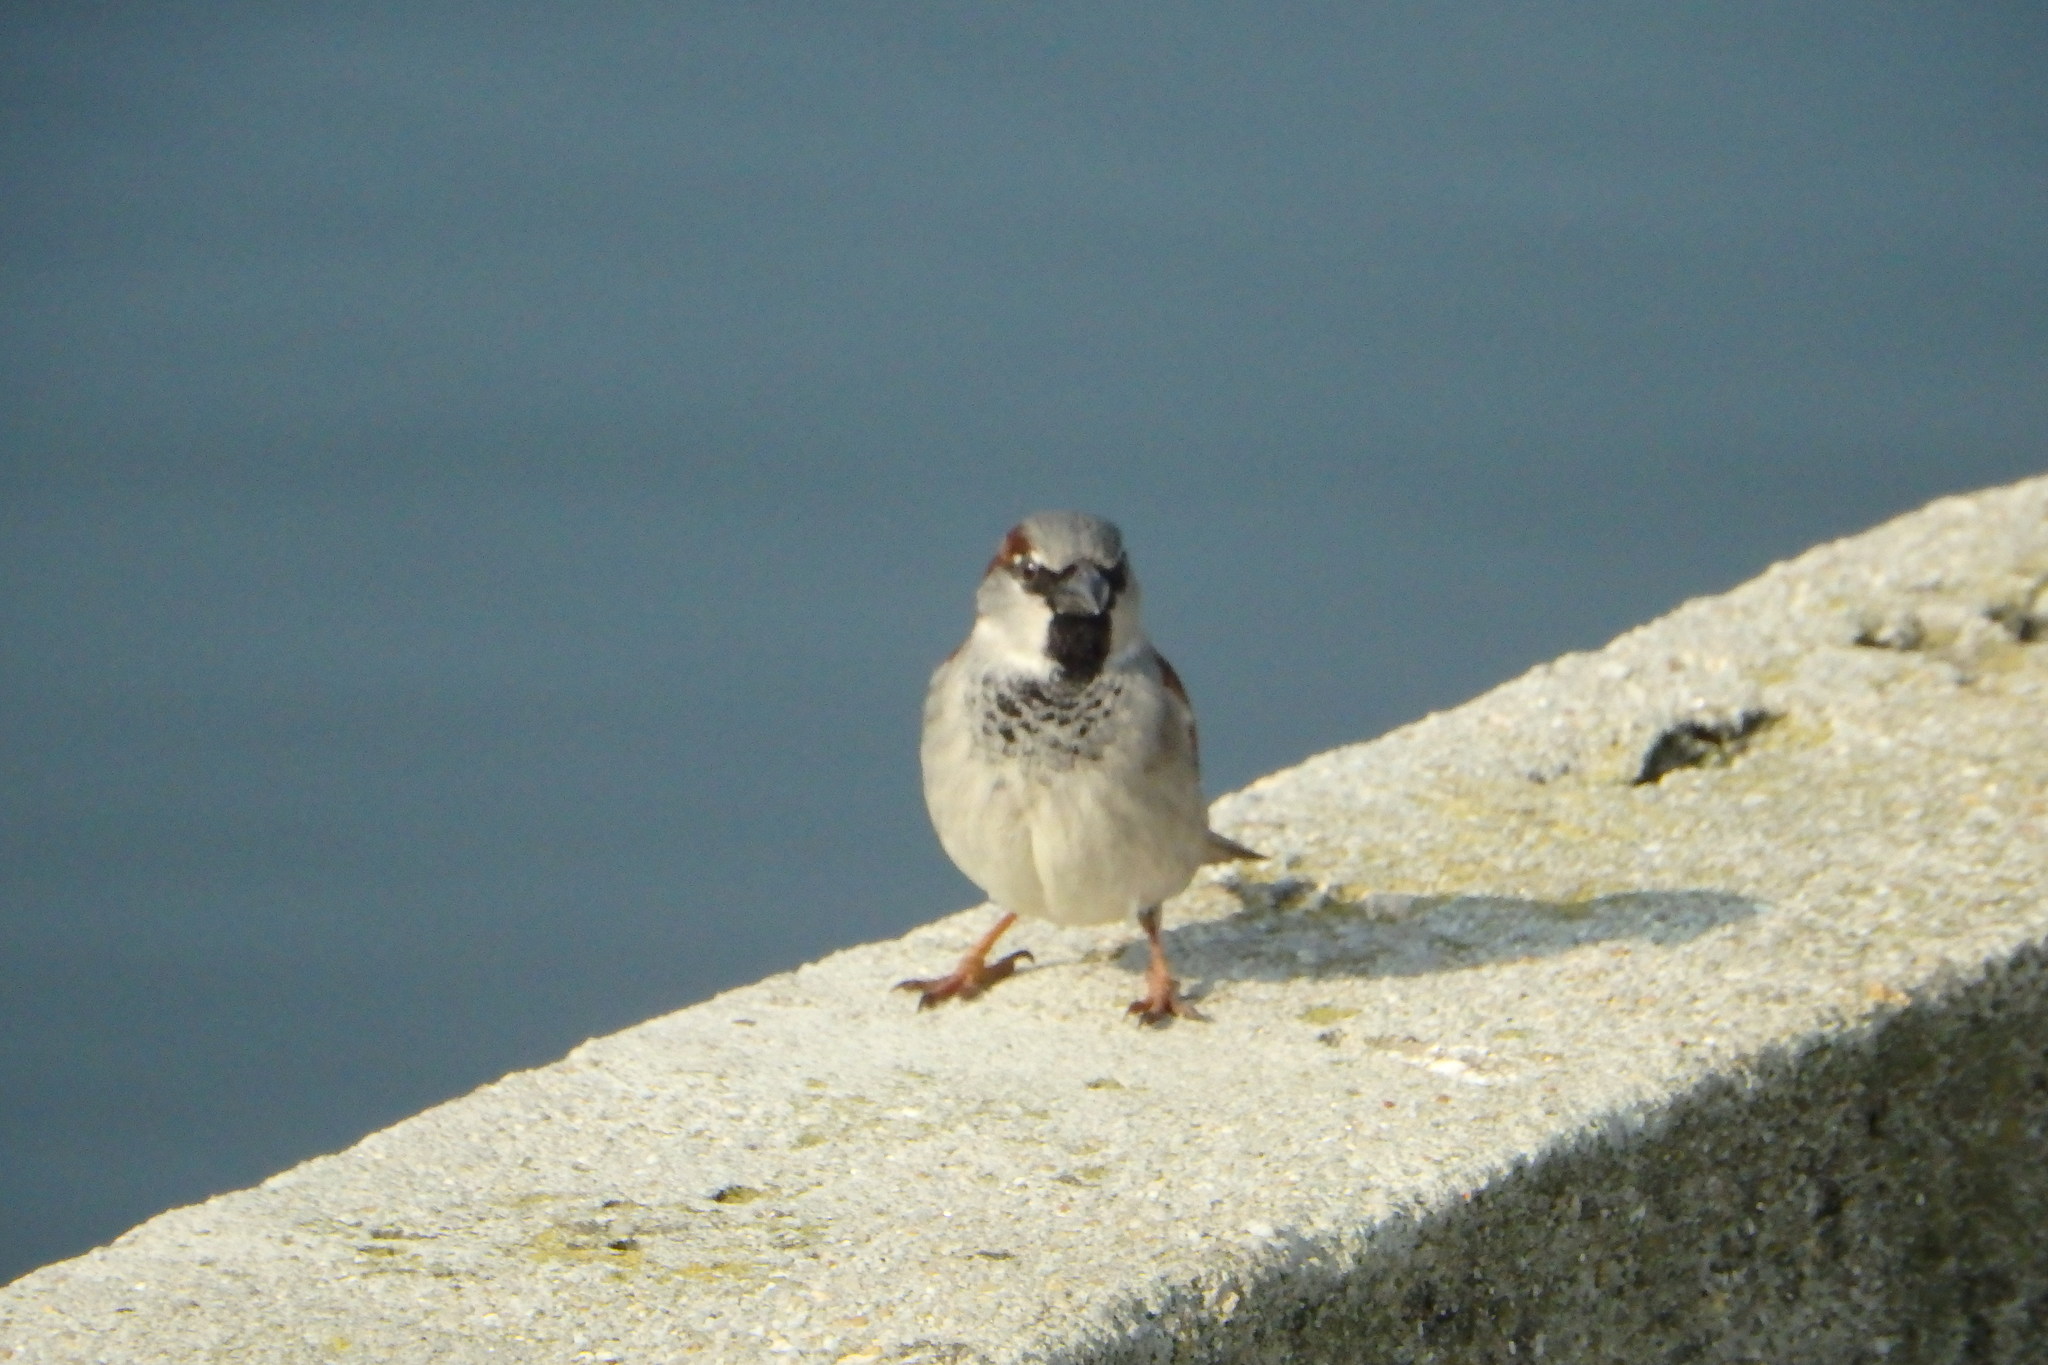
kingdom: Animalia
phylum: Chordata
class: Aves
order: Passeriformes
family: Passeridae
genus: Passer
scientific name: Passer domesticus
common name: House sparrow
